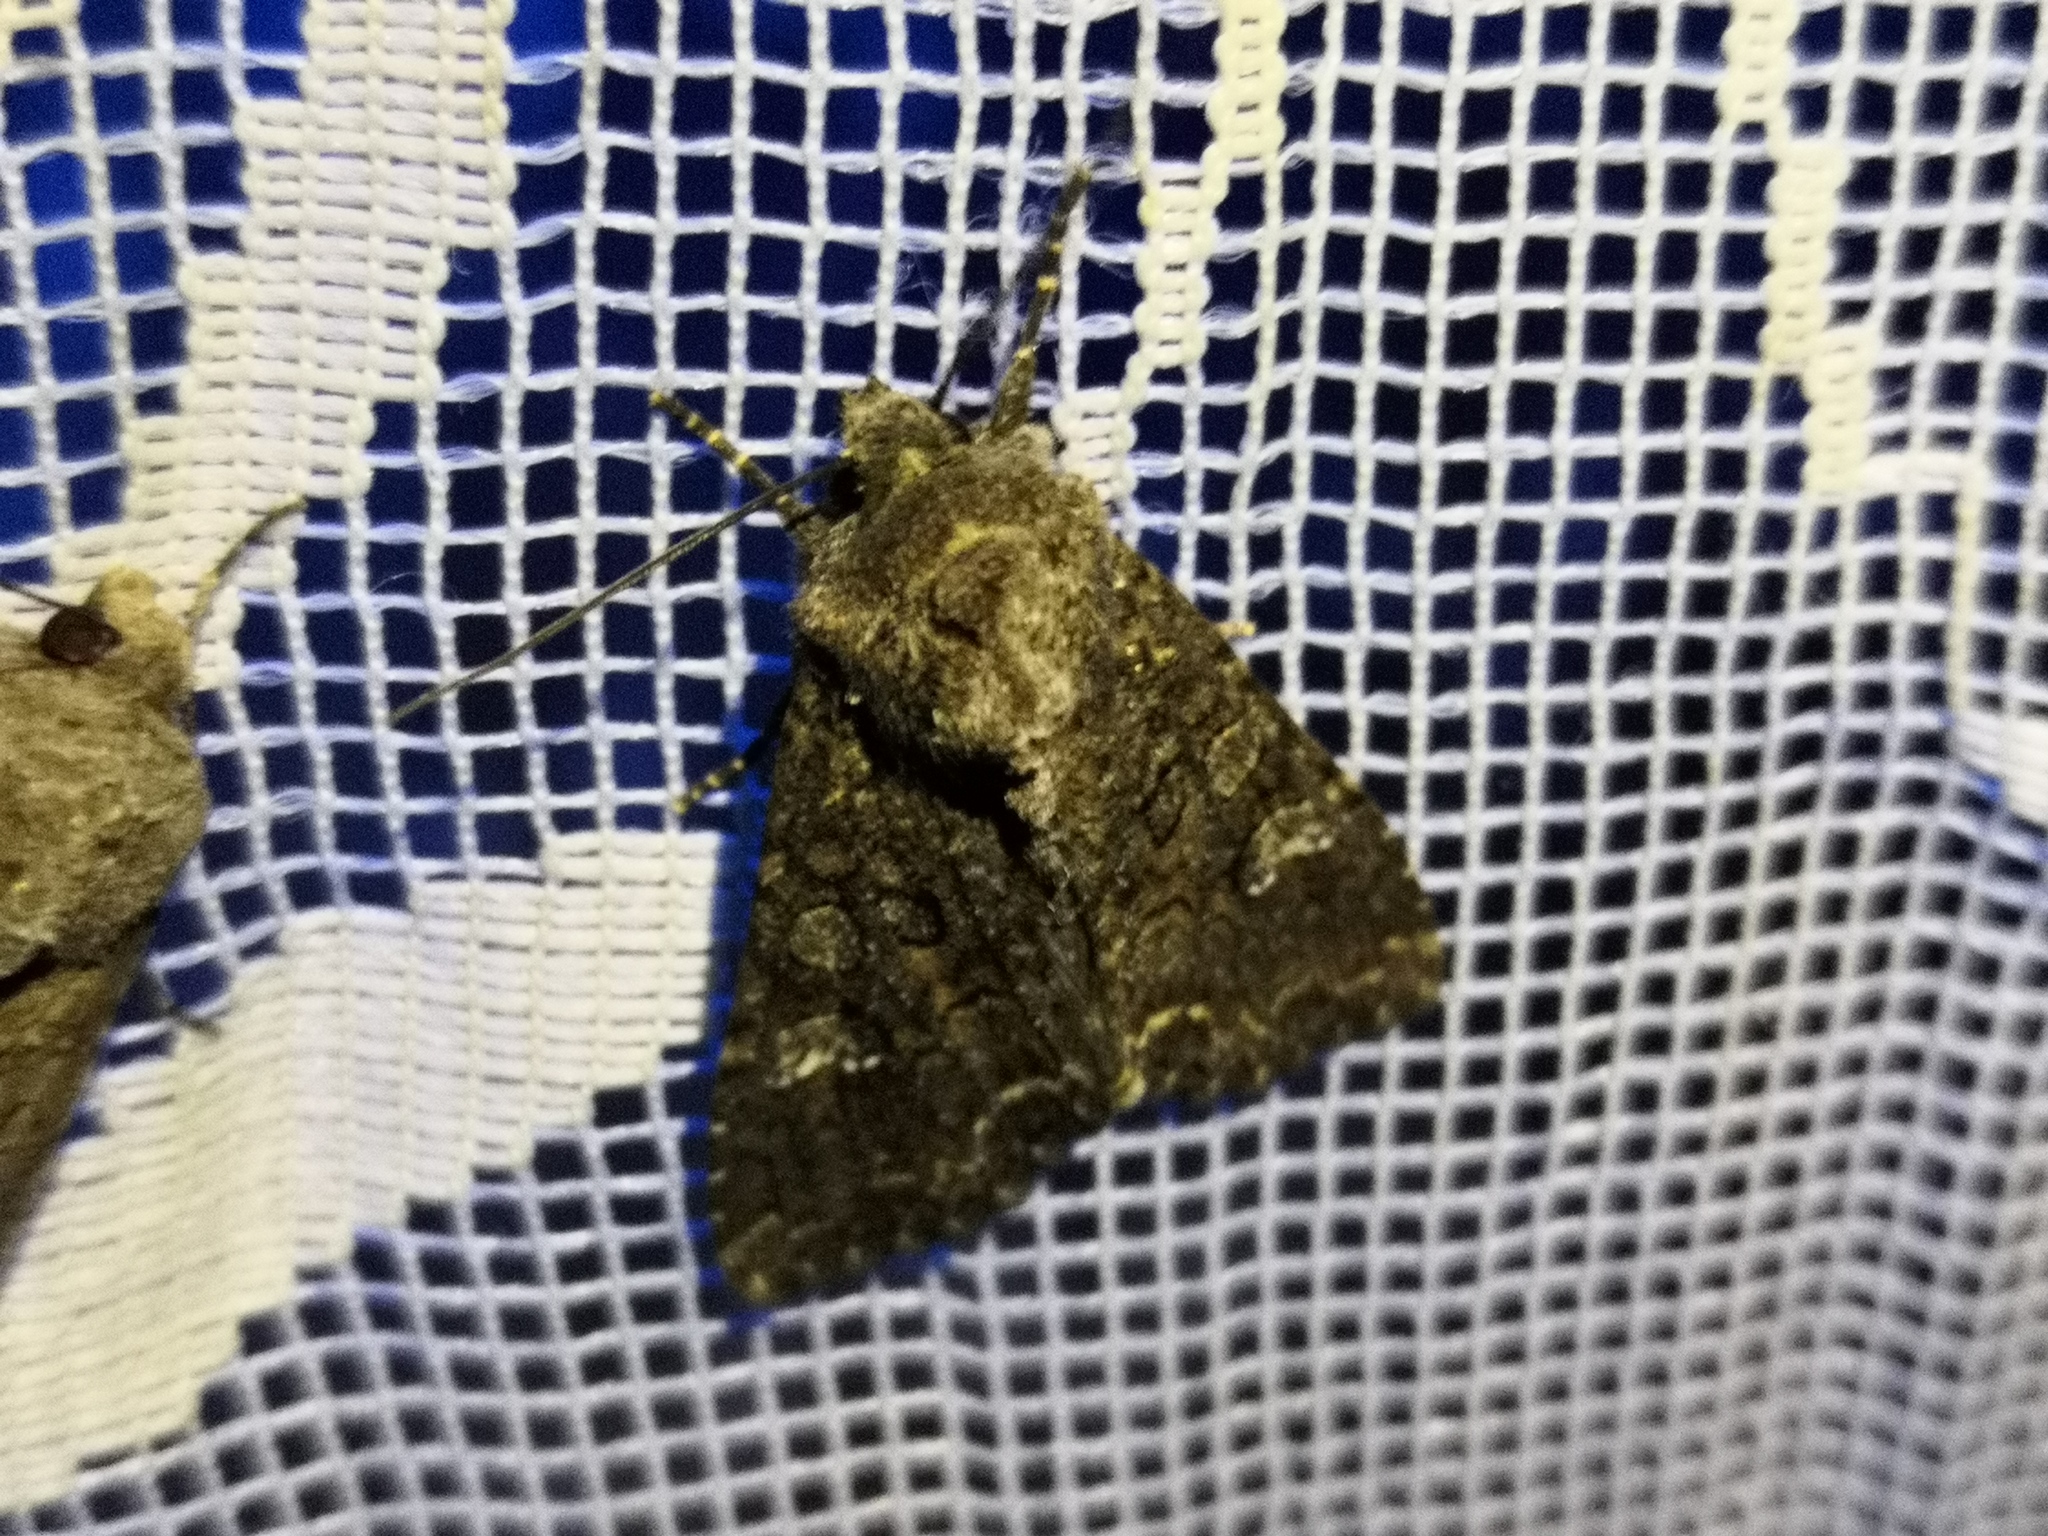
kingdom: Animalia
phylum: Arthropoda
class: Insecta
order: Lepidoptera
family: Noctuidae
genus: Mamestra
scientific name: Mamestra brassicae
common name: Cabbage moth
